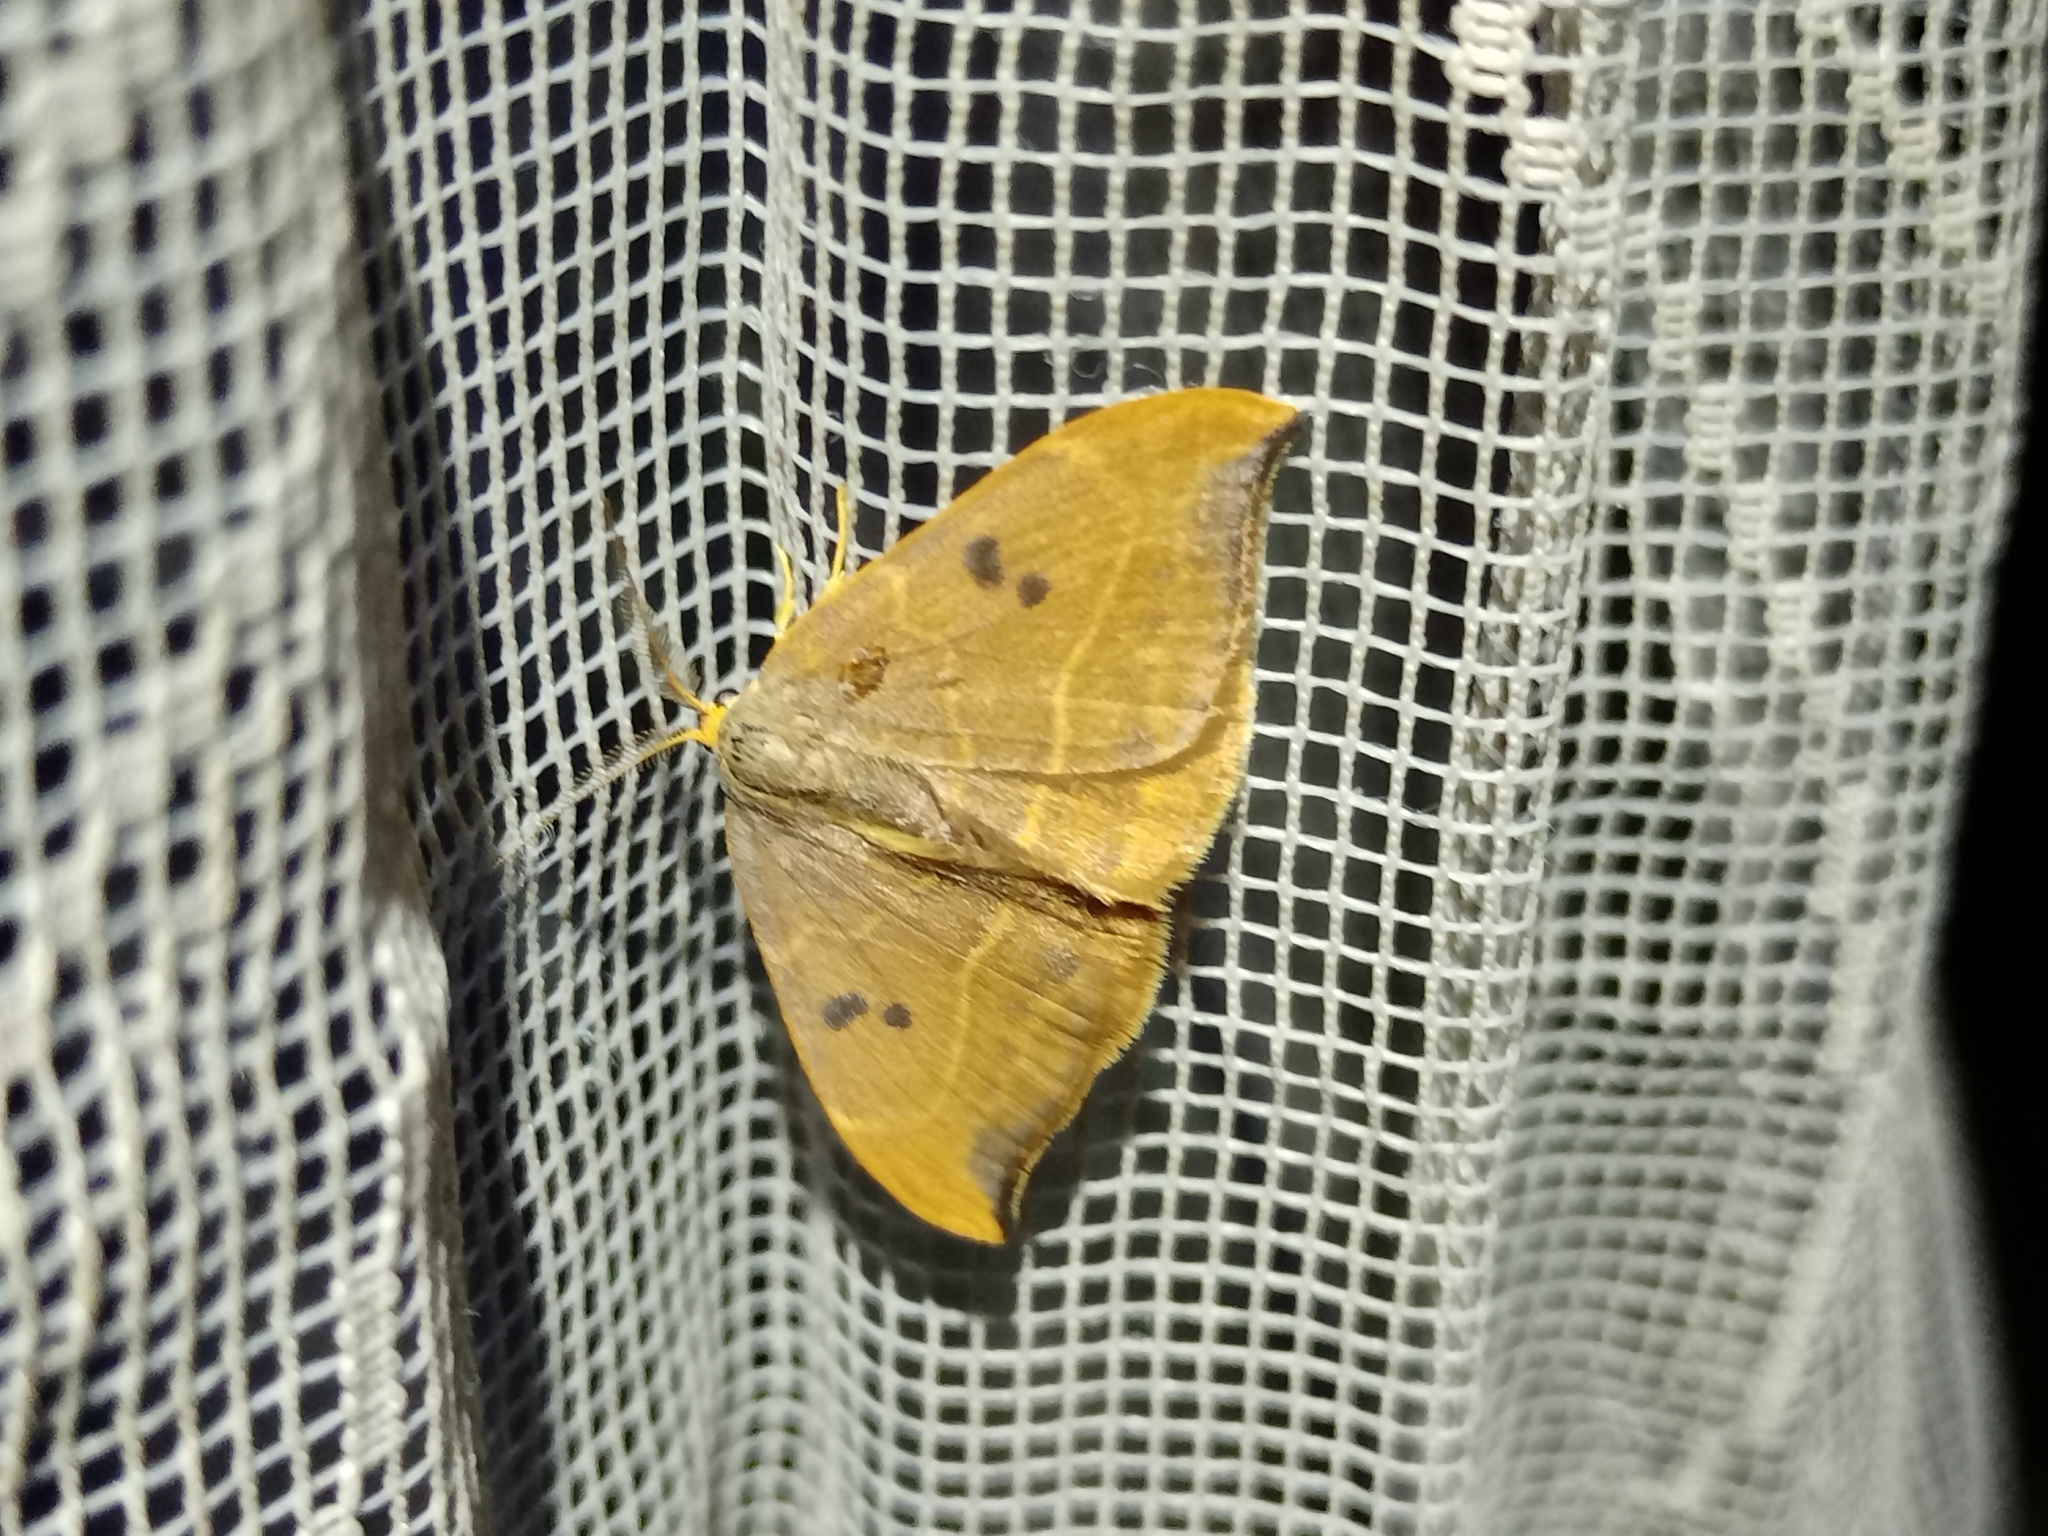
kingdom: Animalia
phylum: Arthropoda
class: Insecta
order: Lepidoptera
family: Drepanidae
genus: Watsonalla
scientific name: Watsonalla binaria
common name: Oak hook-tip
